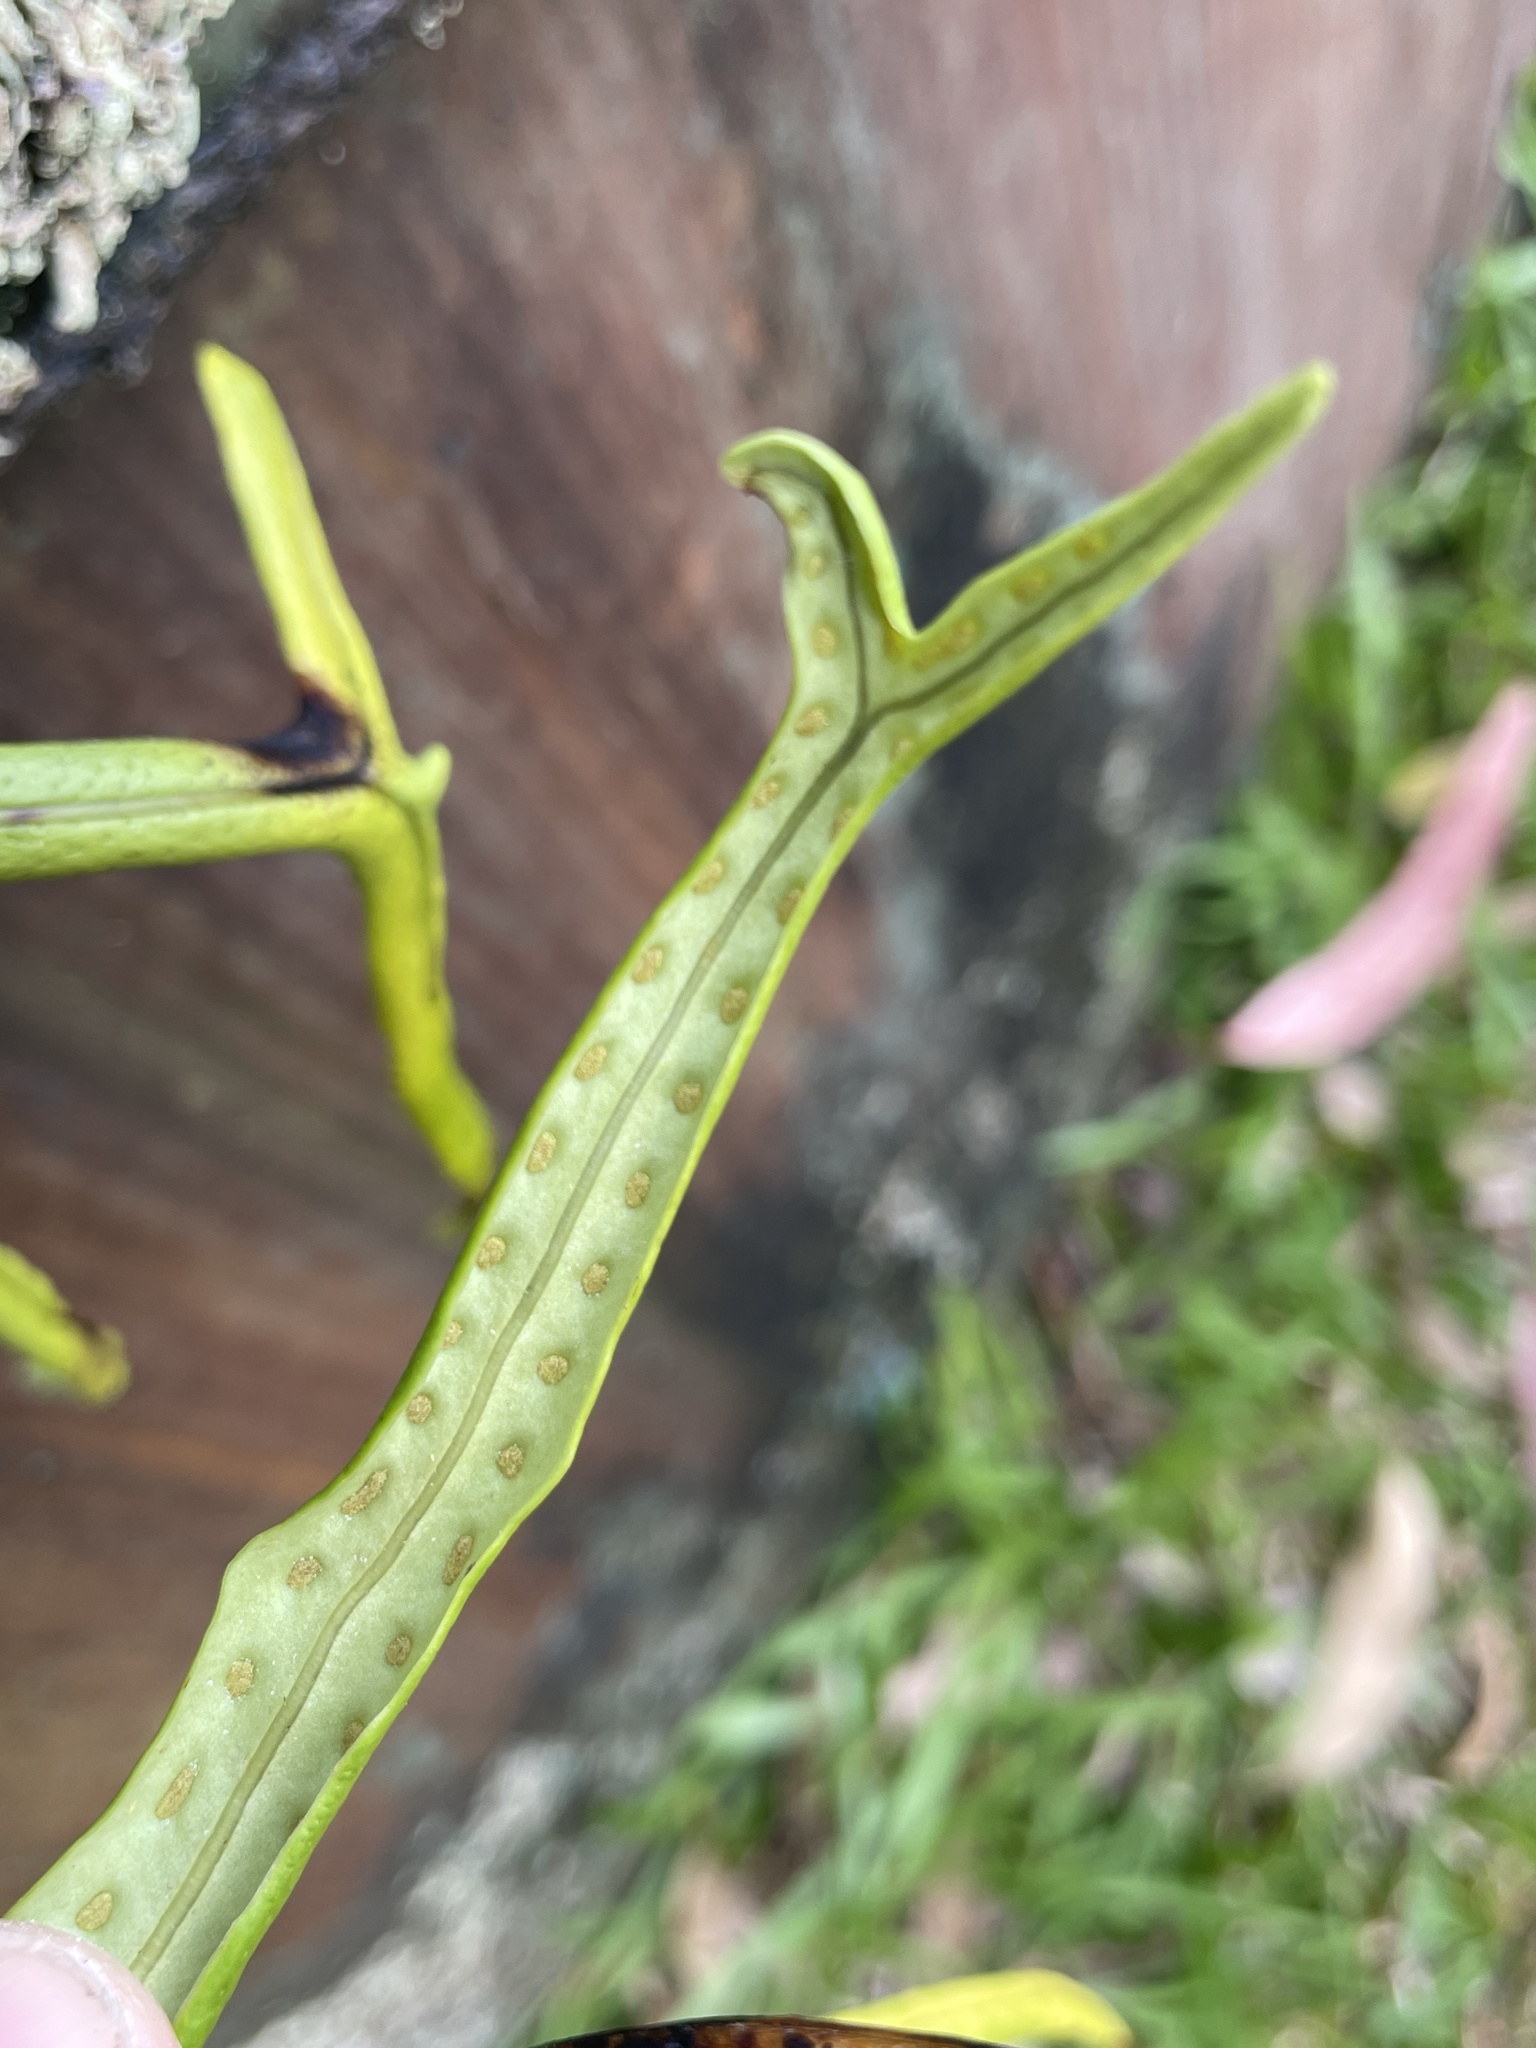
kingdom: Plantae
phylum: Tracheophyta
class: Polypodiopsida
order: Polypodiales
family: Polypodiaceae
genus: Lepisorus
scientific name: Lepisorus thunbergianus
